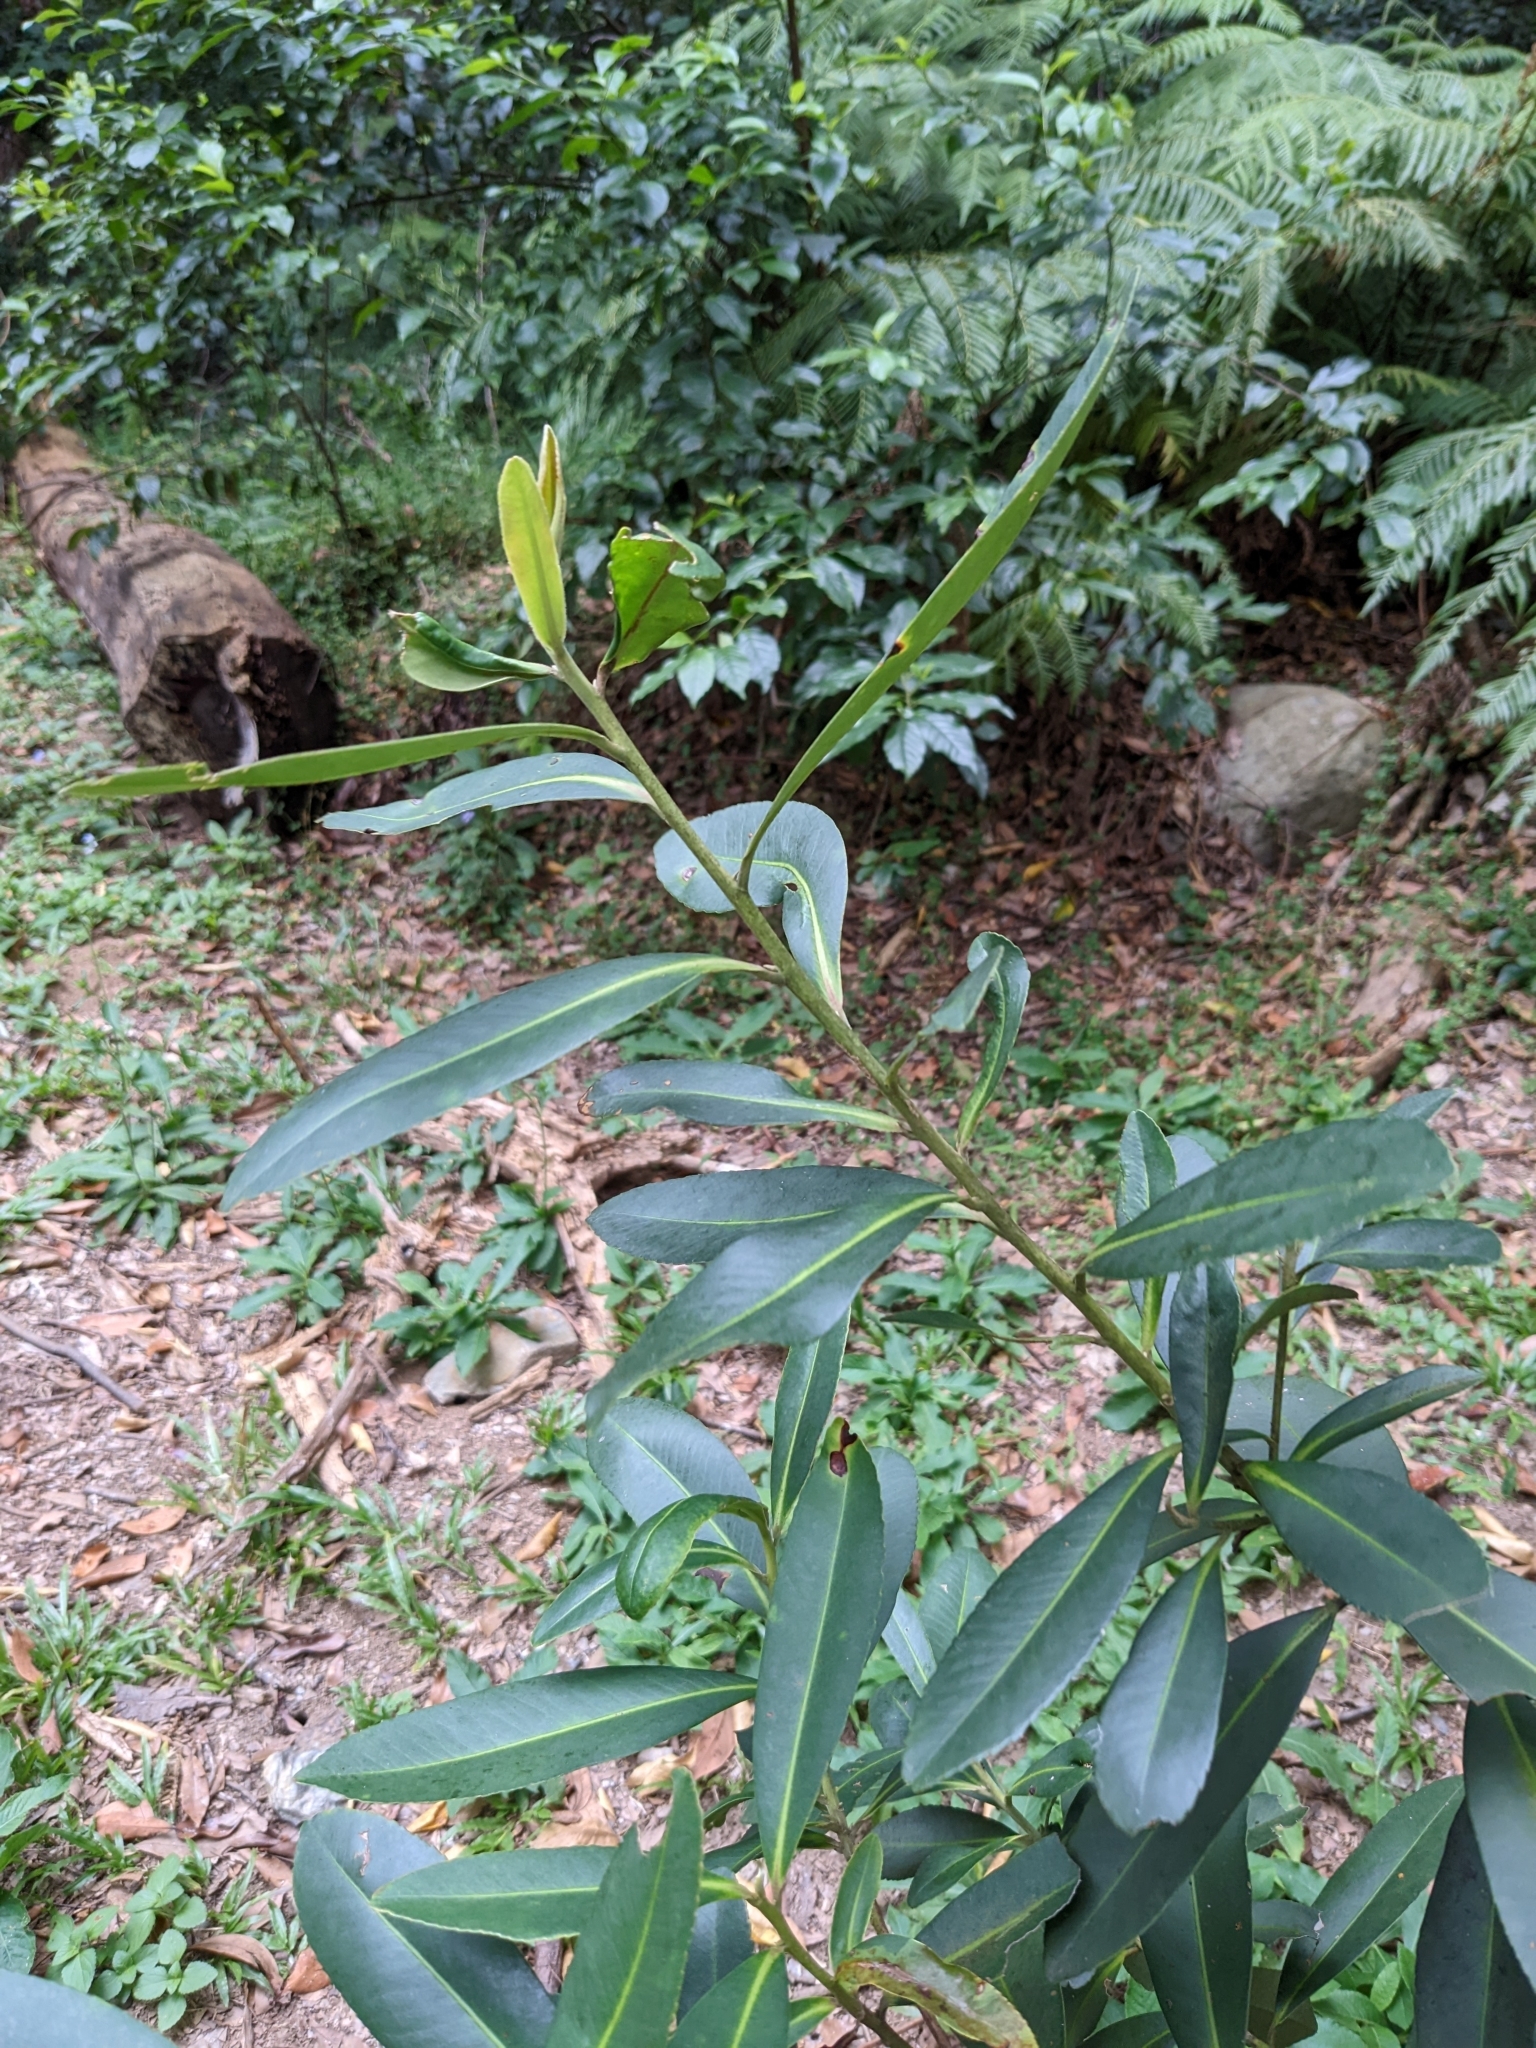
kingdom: Plantae
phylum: Tracheophyta
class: Magnoliopsida
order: Ericales
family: Theaceae
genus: Polyspora
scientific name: Polyspora axillaris
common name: Fried egg tree
